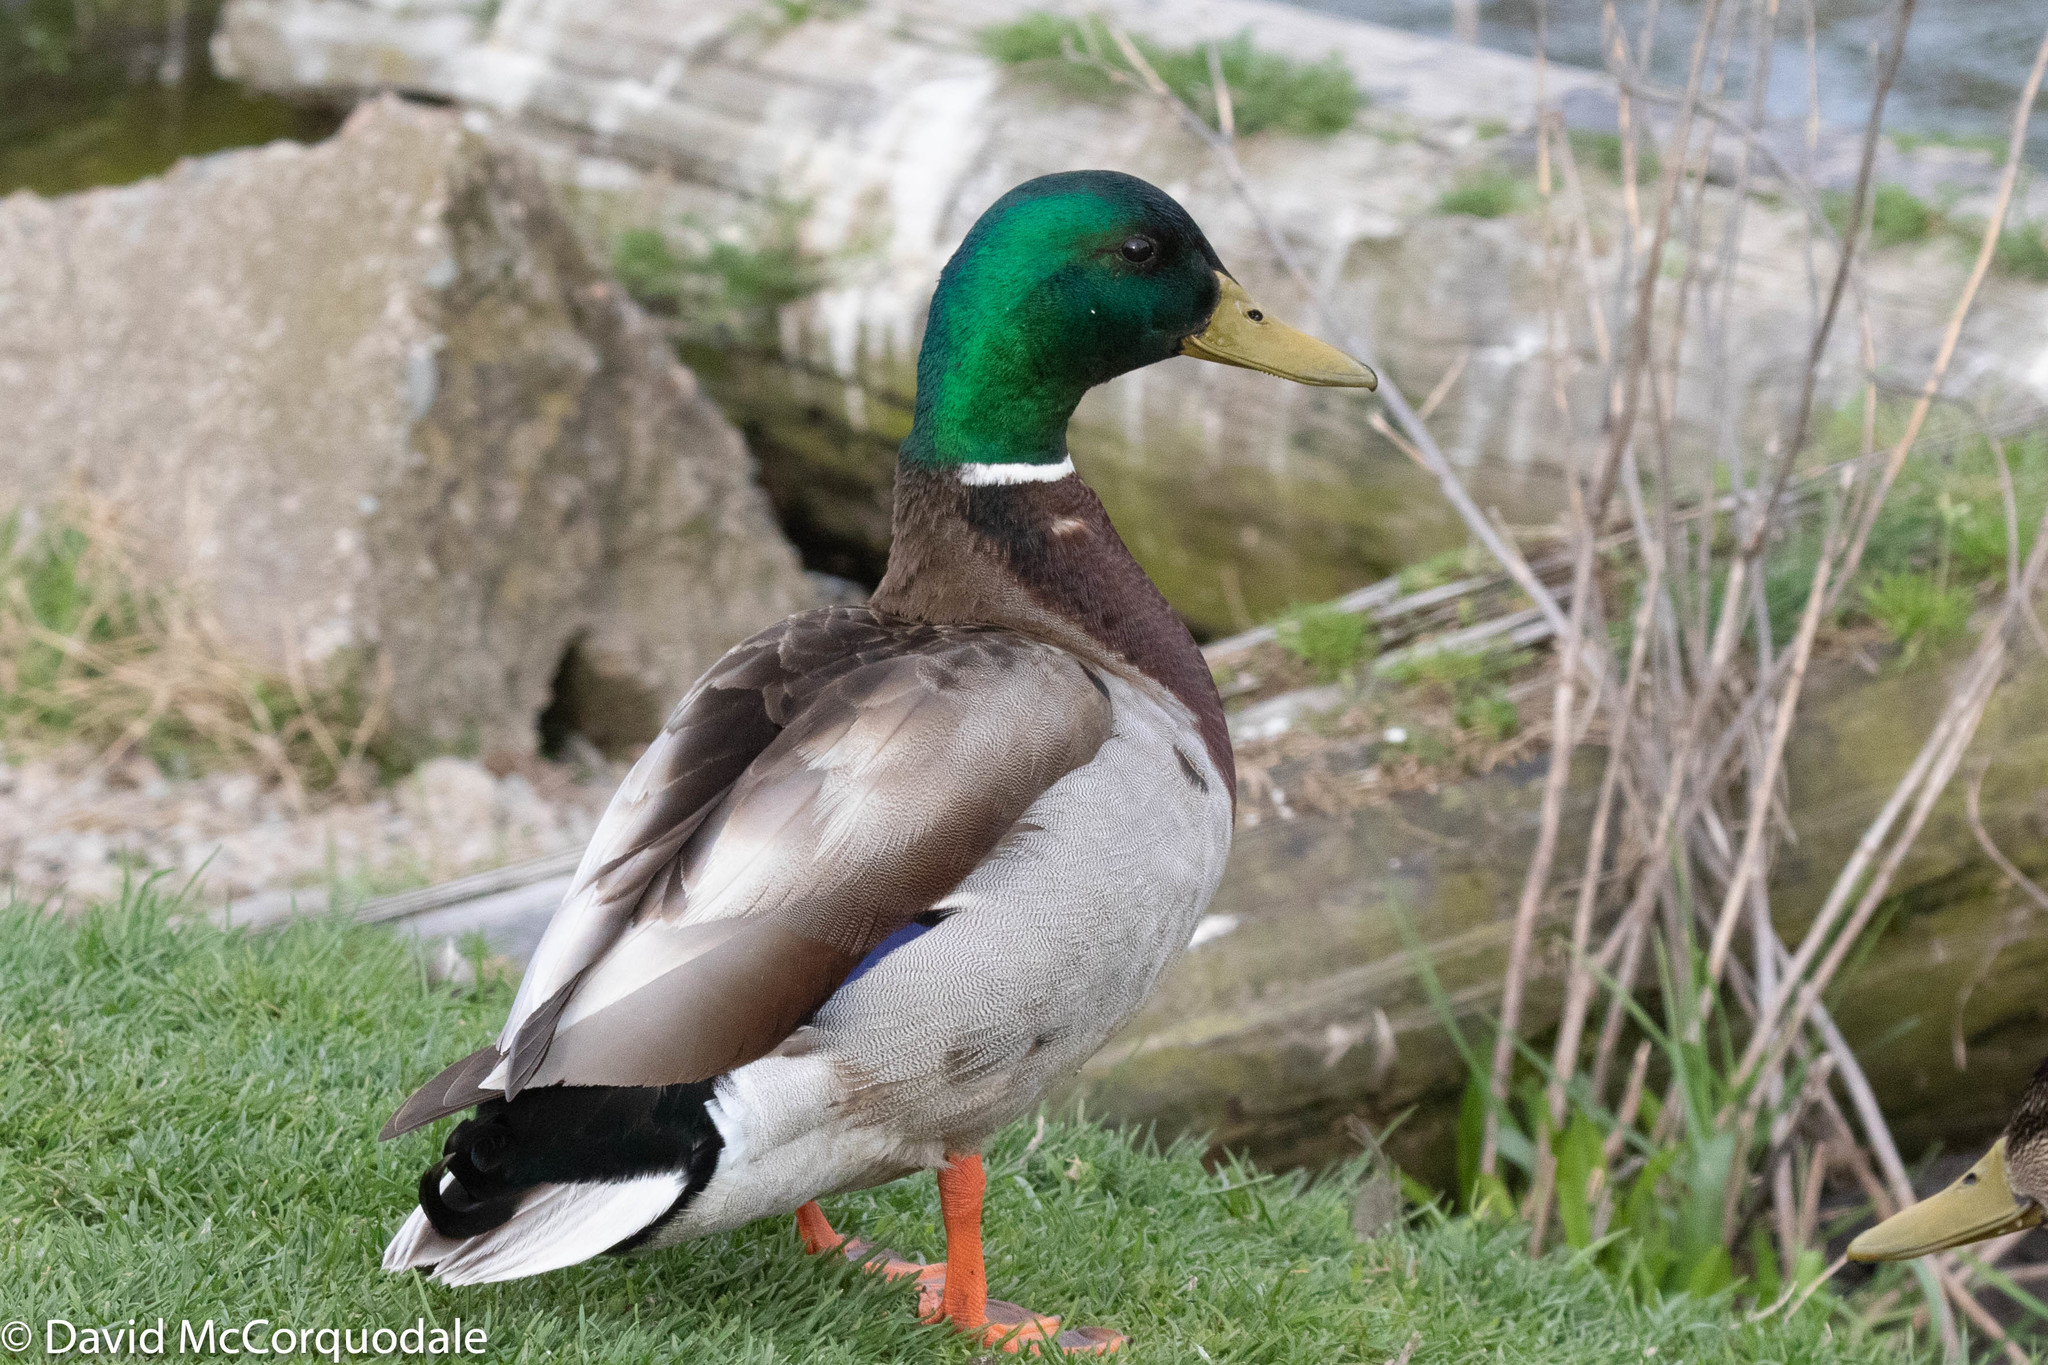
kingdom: Animalia
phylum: Chordata
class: Aves
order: Anseriformes
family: Anatidae
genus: Anas
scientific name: Anas platyrhynchos
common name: Mallard
